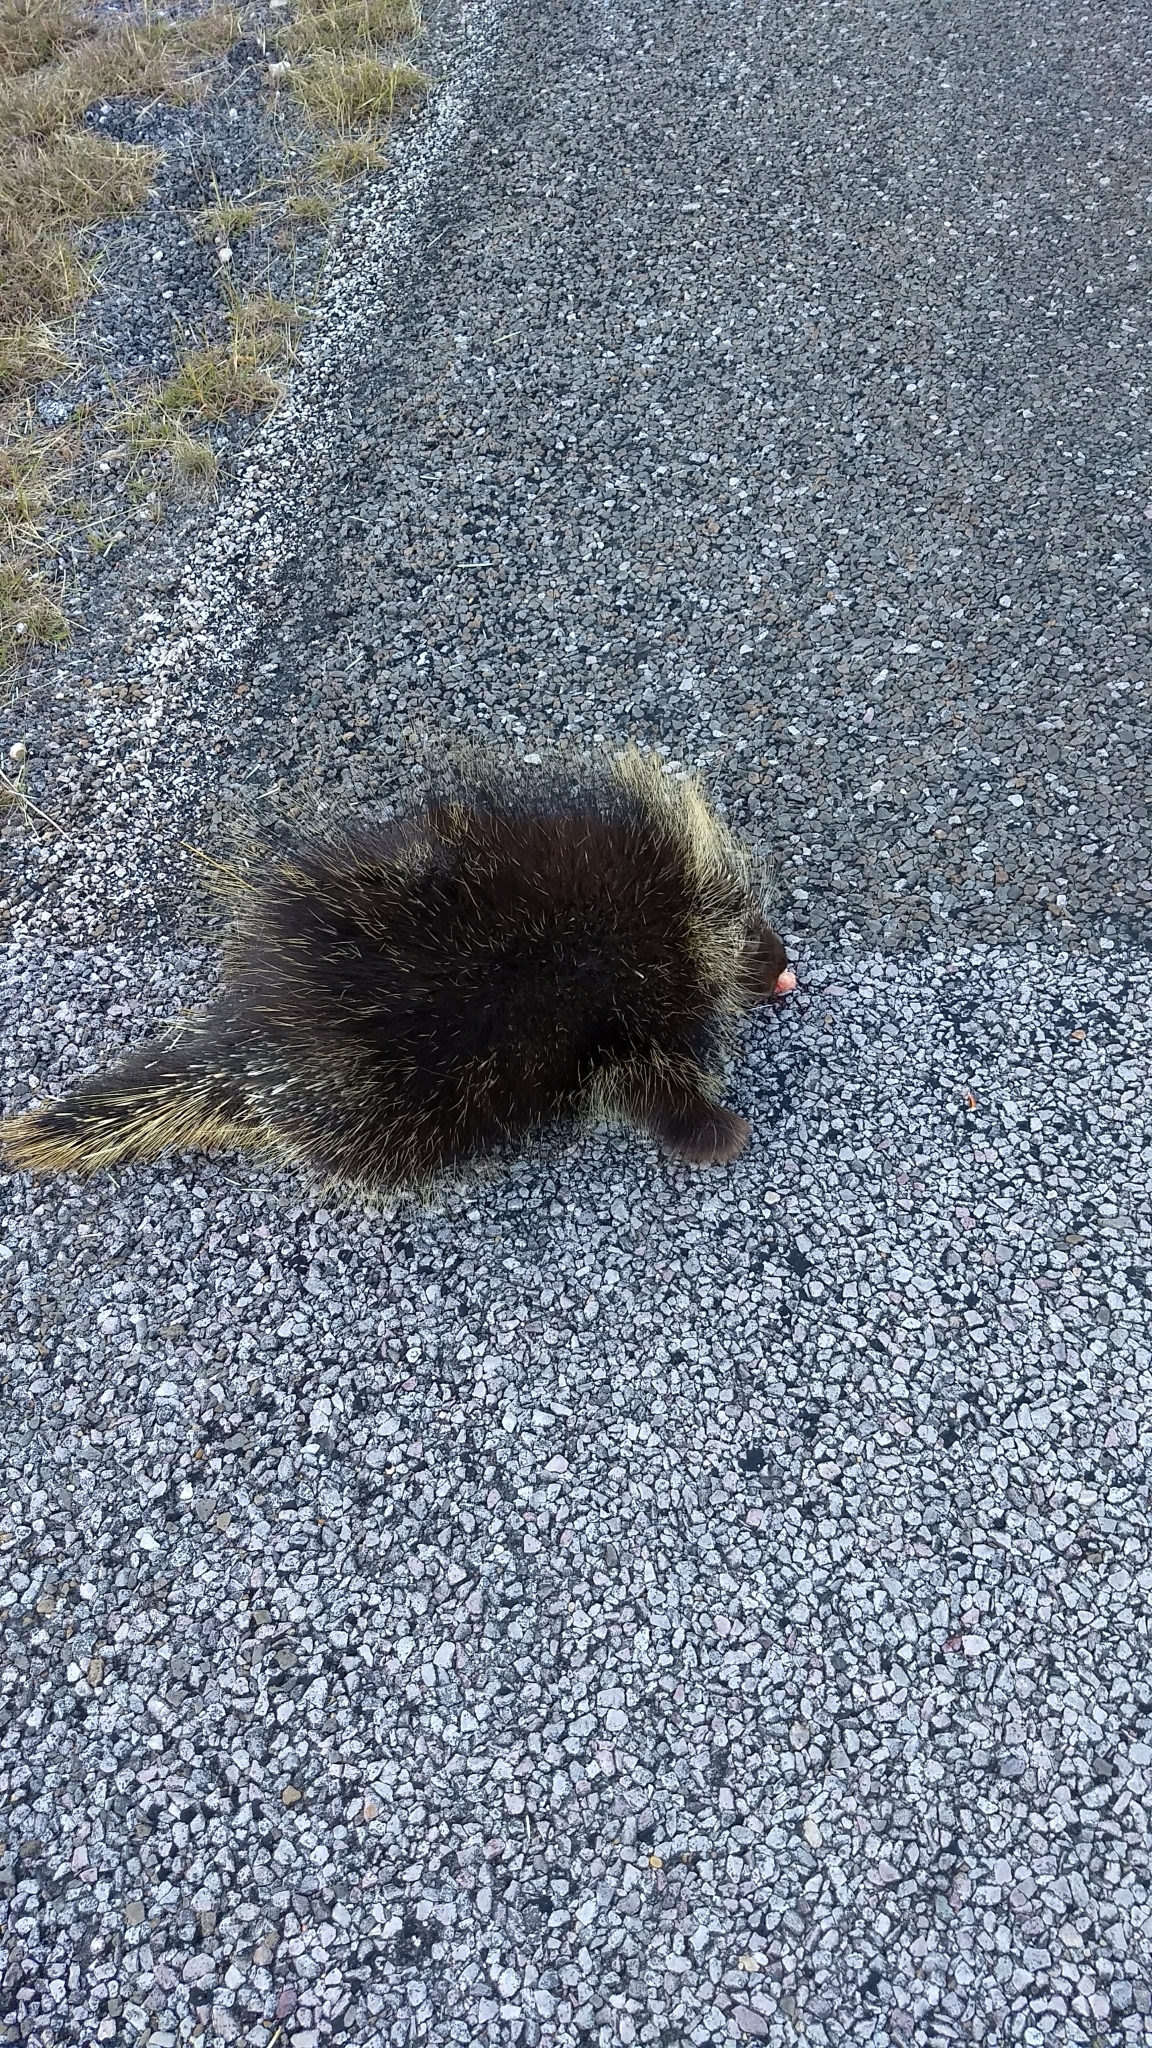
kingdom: Animalia
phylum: Chordata
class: Mammalia
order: Rodentia
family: Erethizontidae
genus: Erethizon
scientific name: Erethizon dorsatus
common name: North american porcupine
